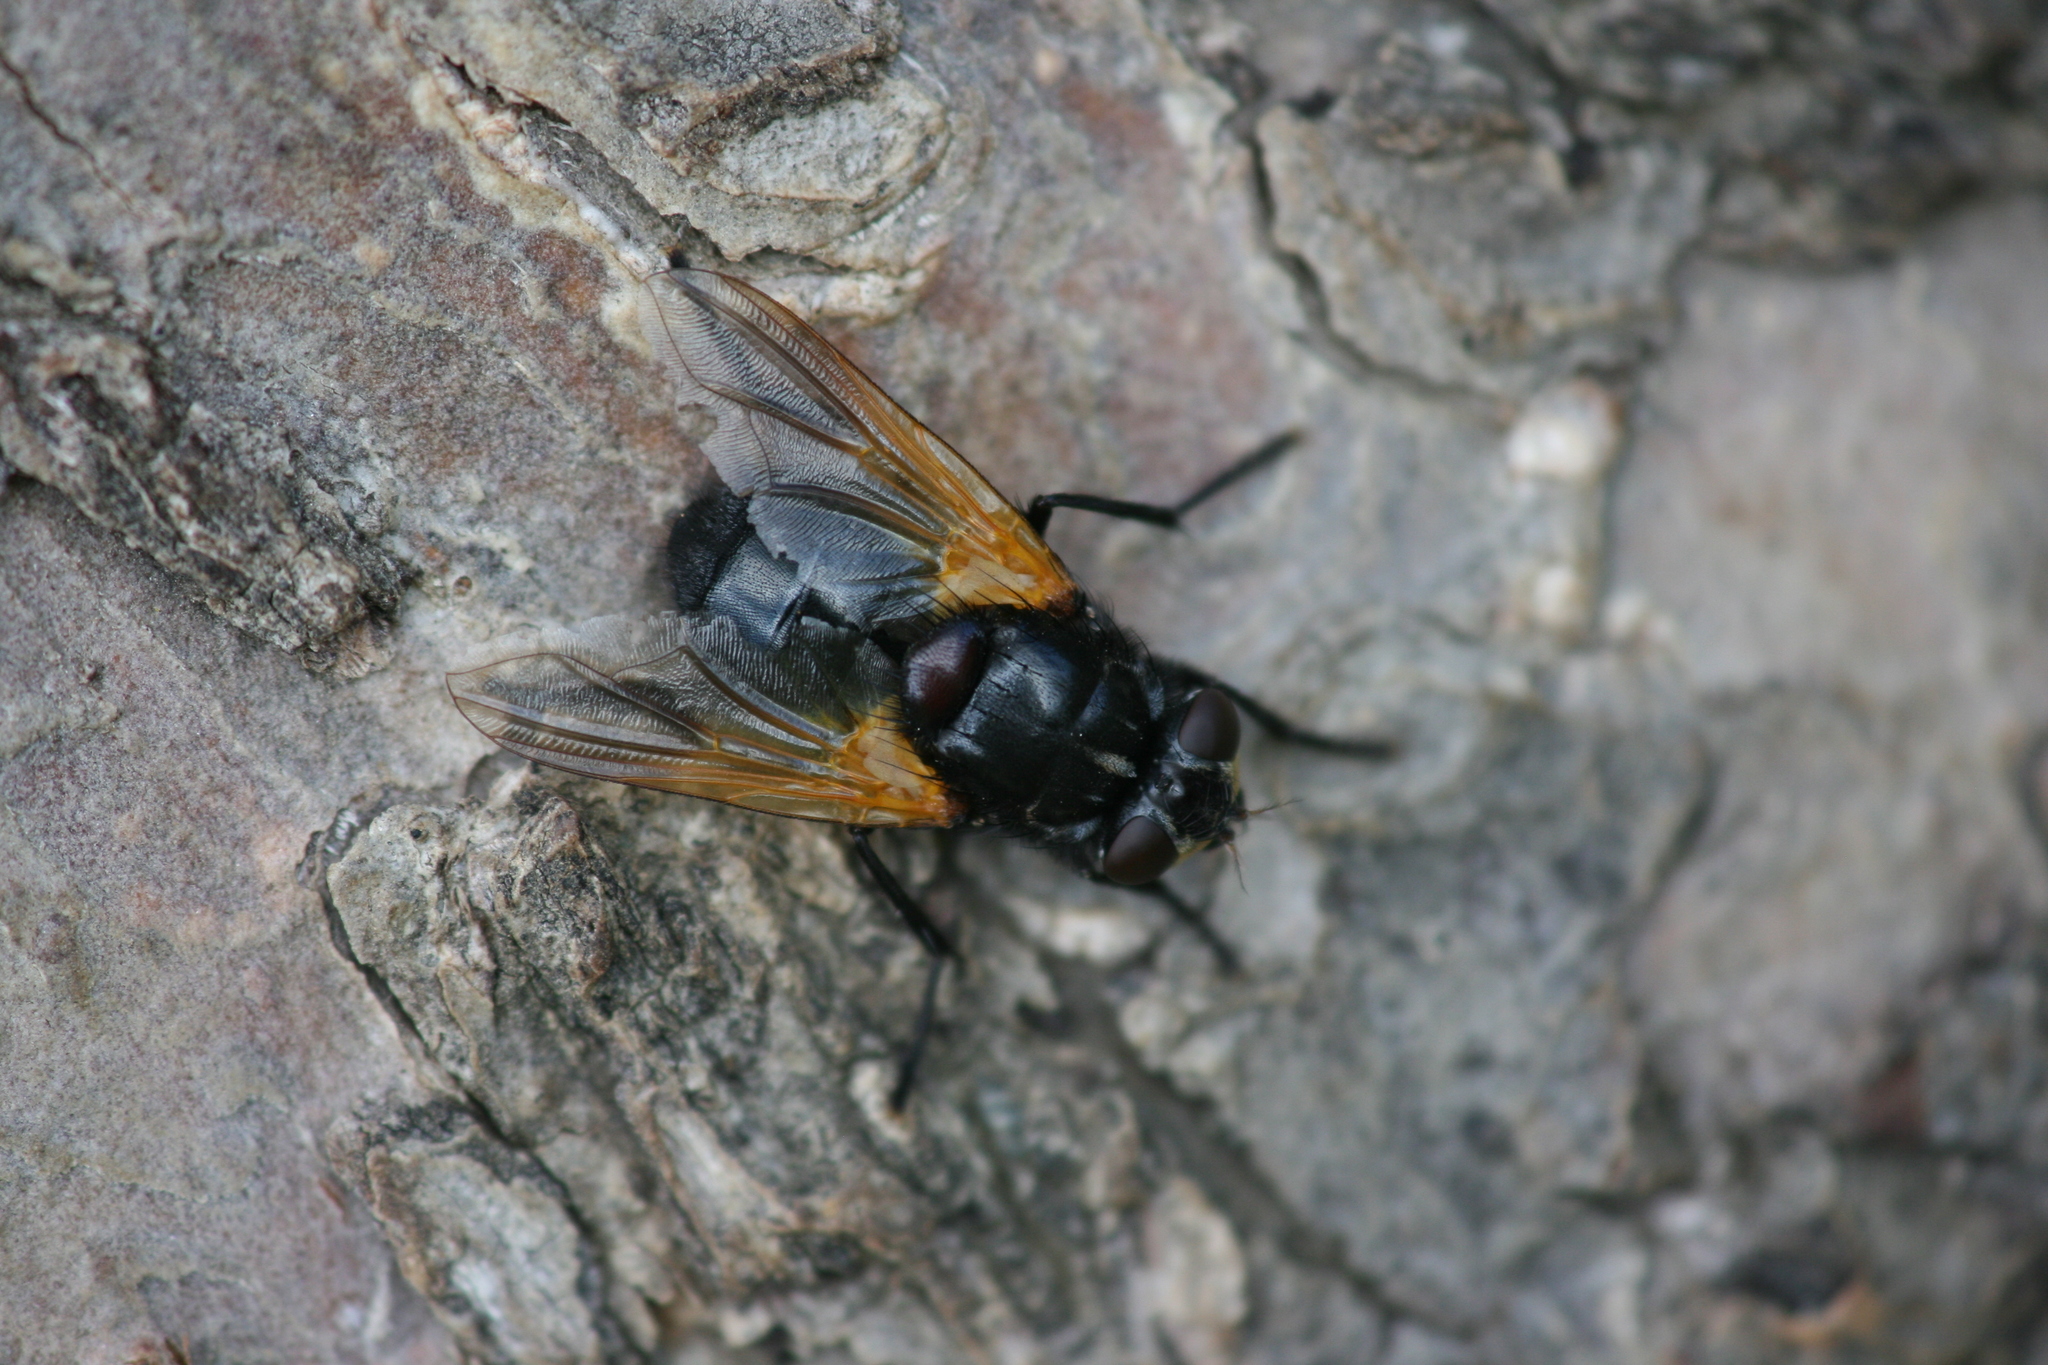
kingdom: Animalia
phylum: Arthropoda
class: Insecta
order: Diptera
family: Muscidae
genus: Mesembrina
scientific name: Mesembrina meridiana
